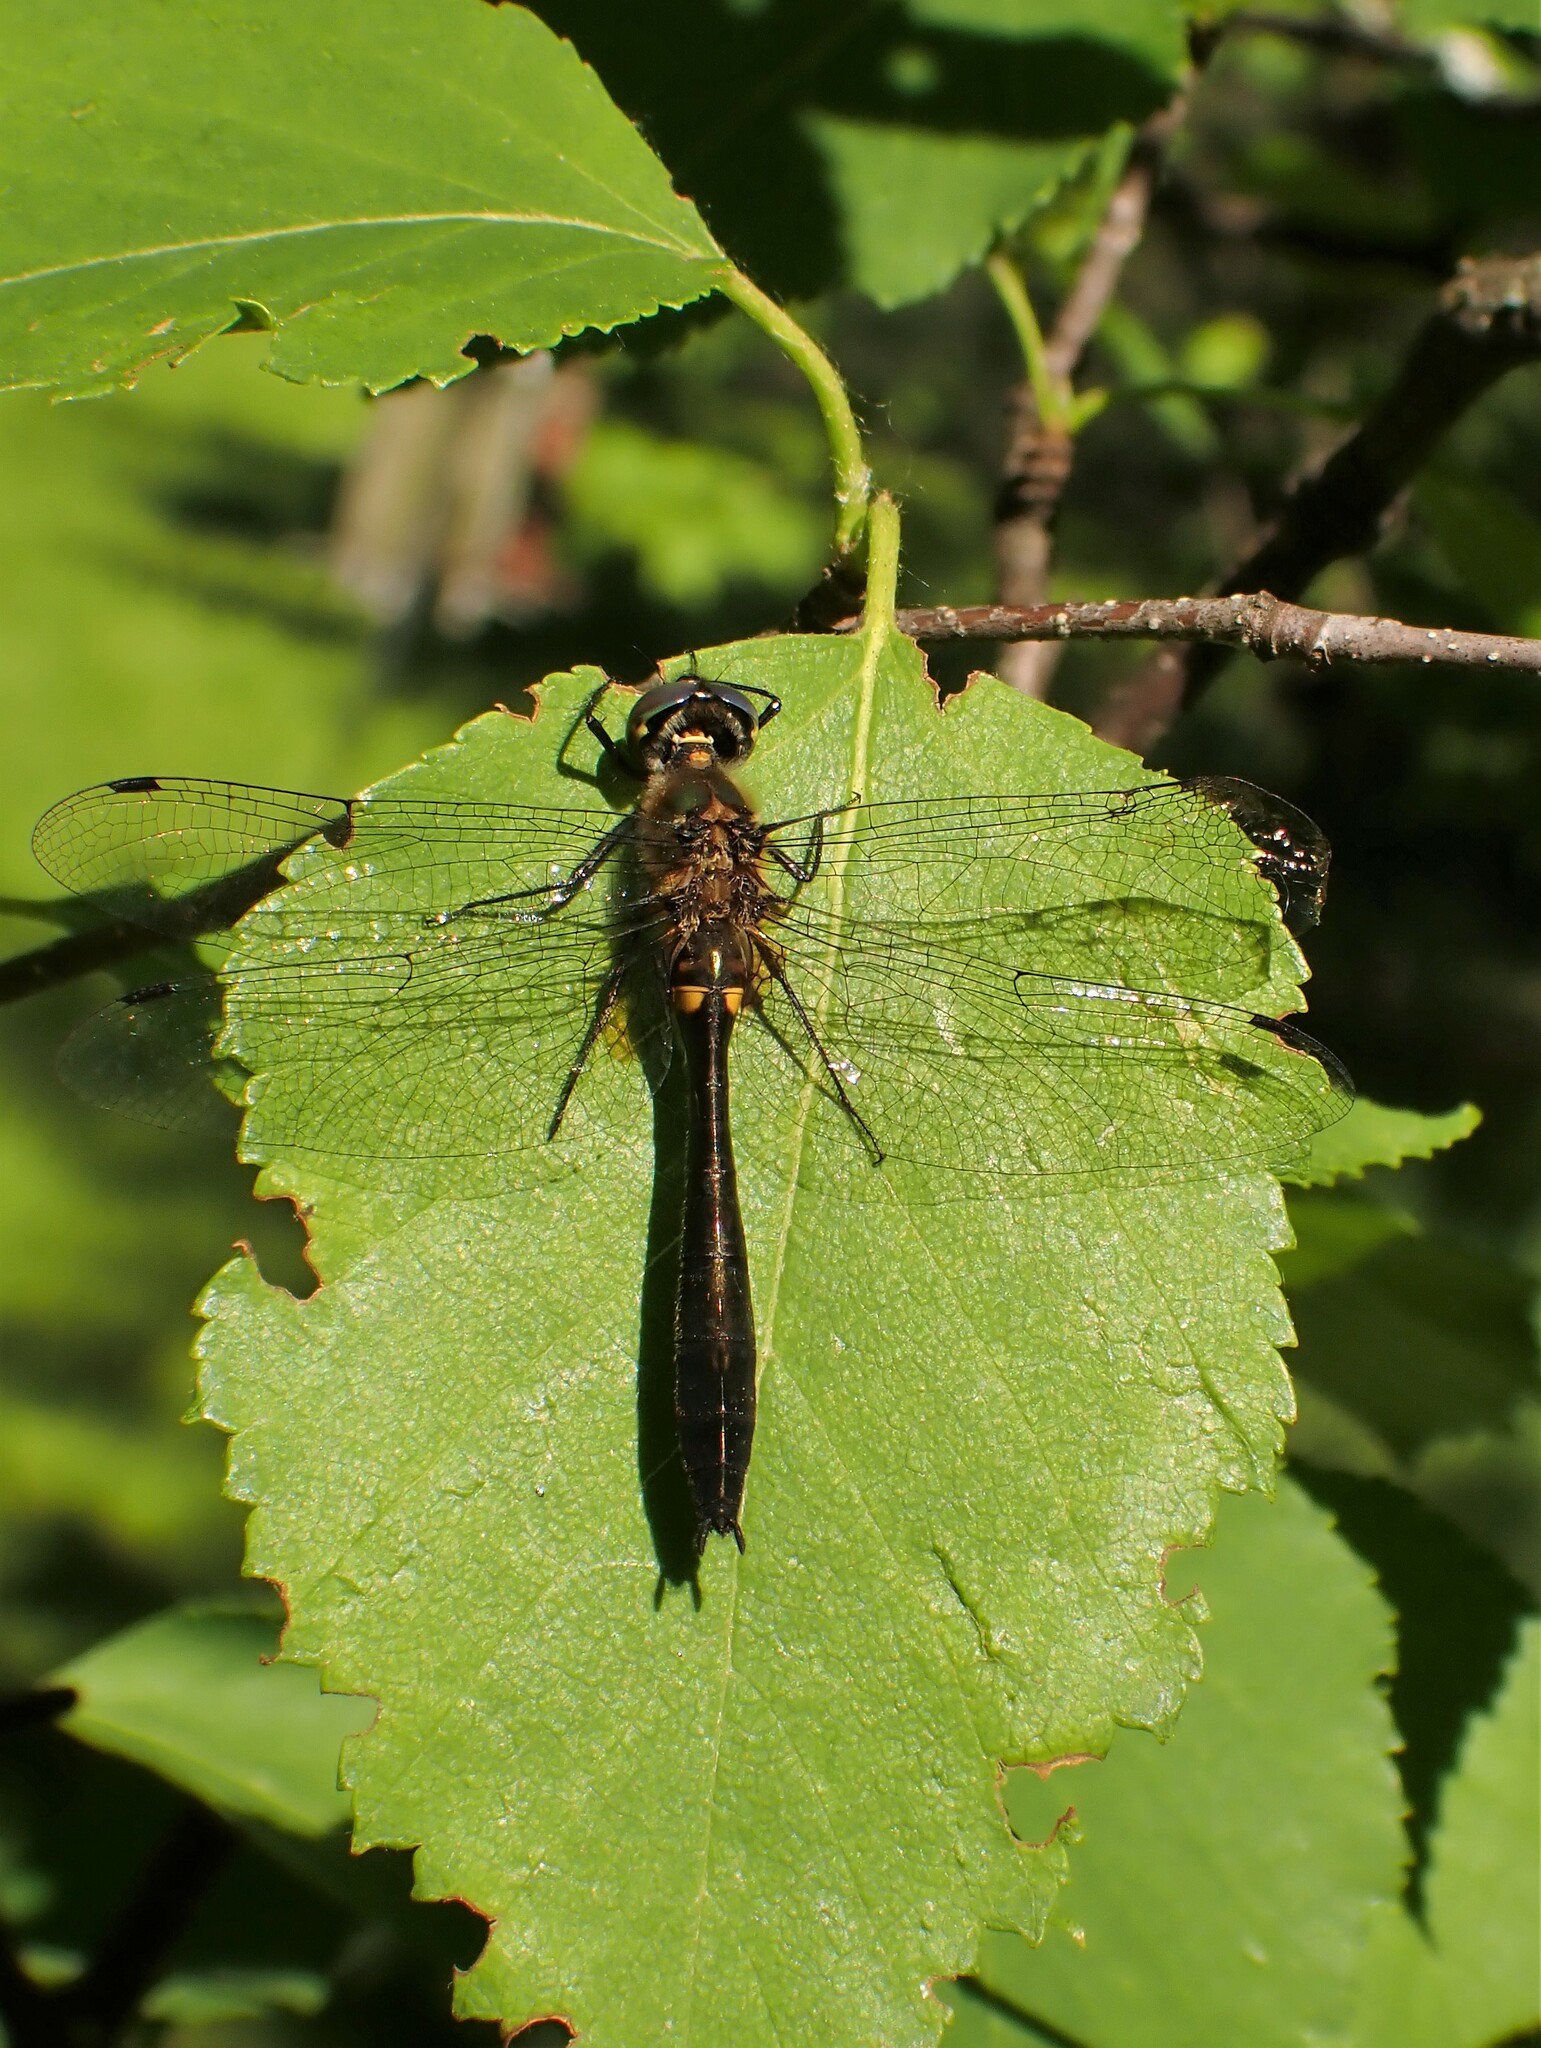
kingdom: Animalia
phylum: Arthropoda
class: Insecta
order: Odonata
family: Corduliidae
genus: Dorocordulia
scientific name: Dorocordulia libera
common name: Racket-tailed emerald
